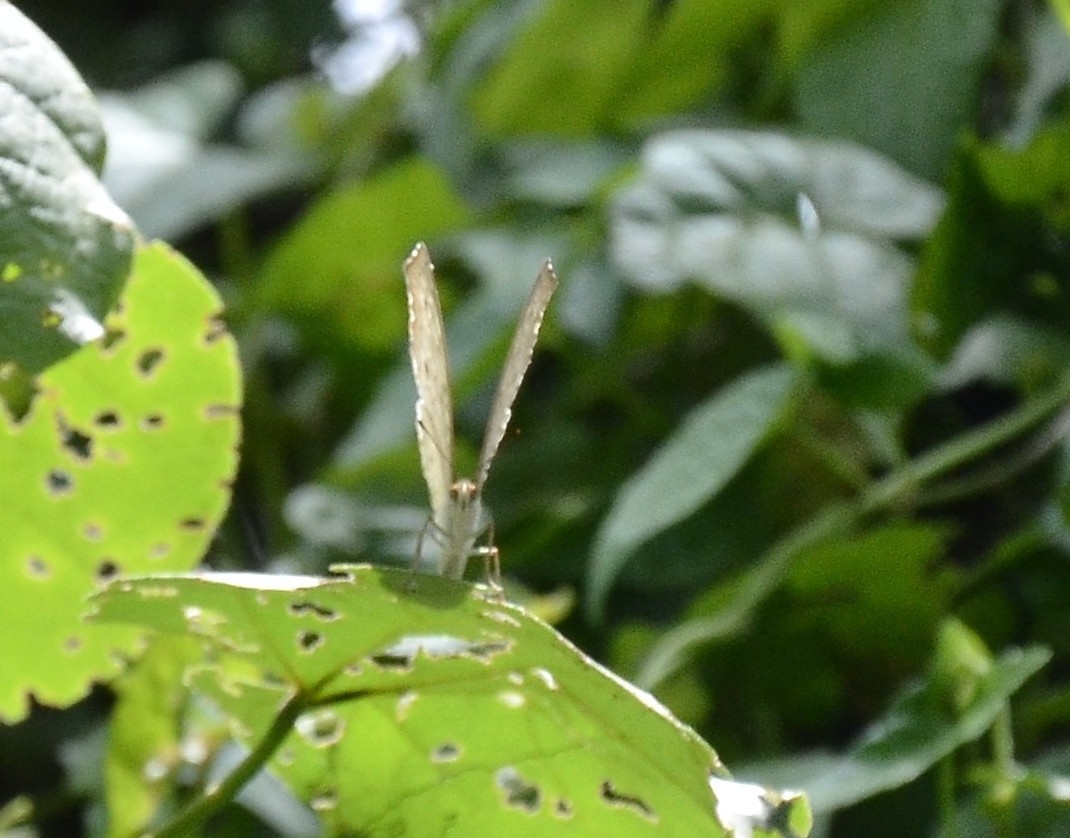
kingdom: Animalia
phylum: Arthropoda
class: Insecta
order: Lepidoptera
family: Nymphalidae
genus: Junonia
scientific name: Junonia atlites
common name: Grey pansy
